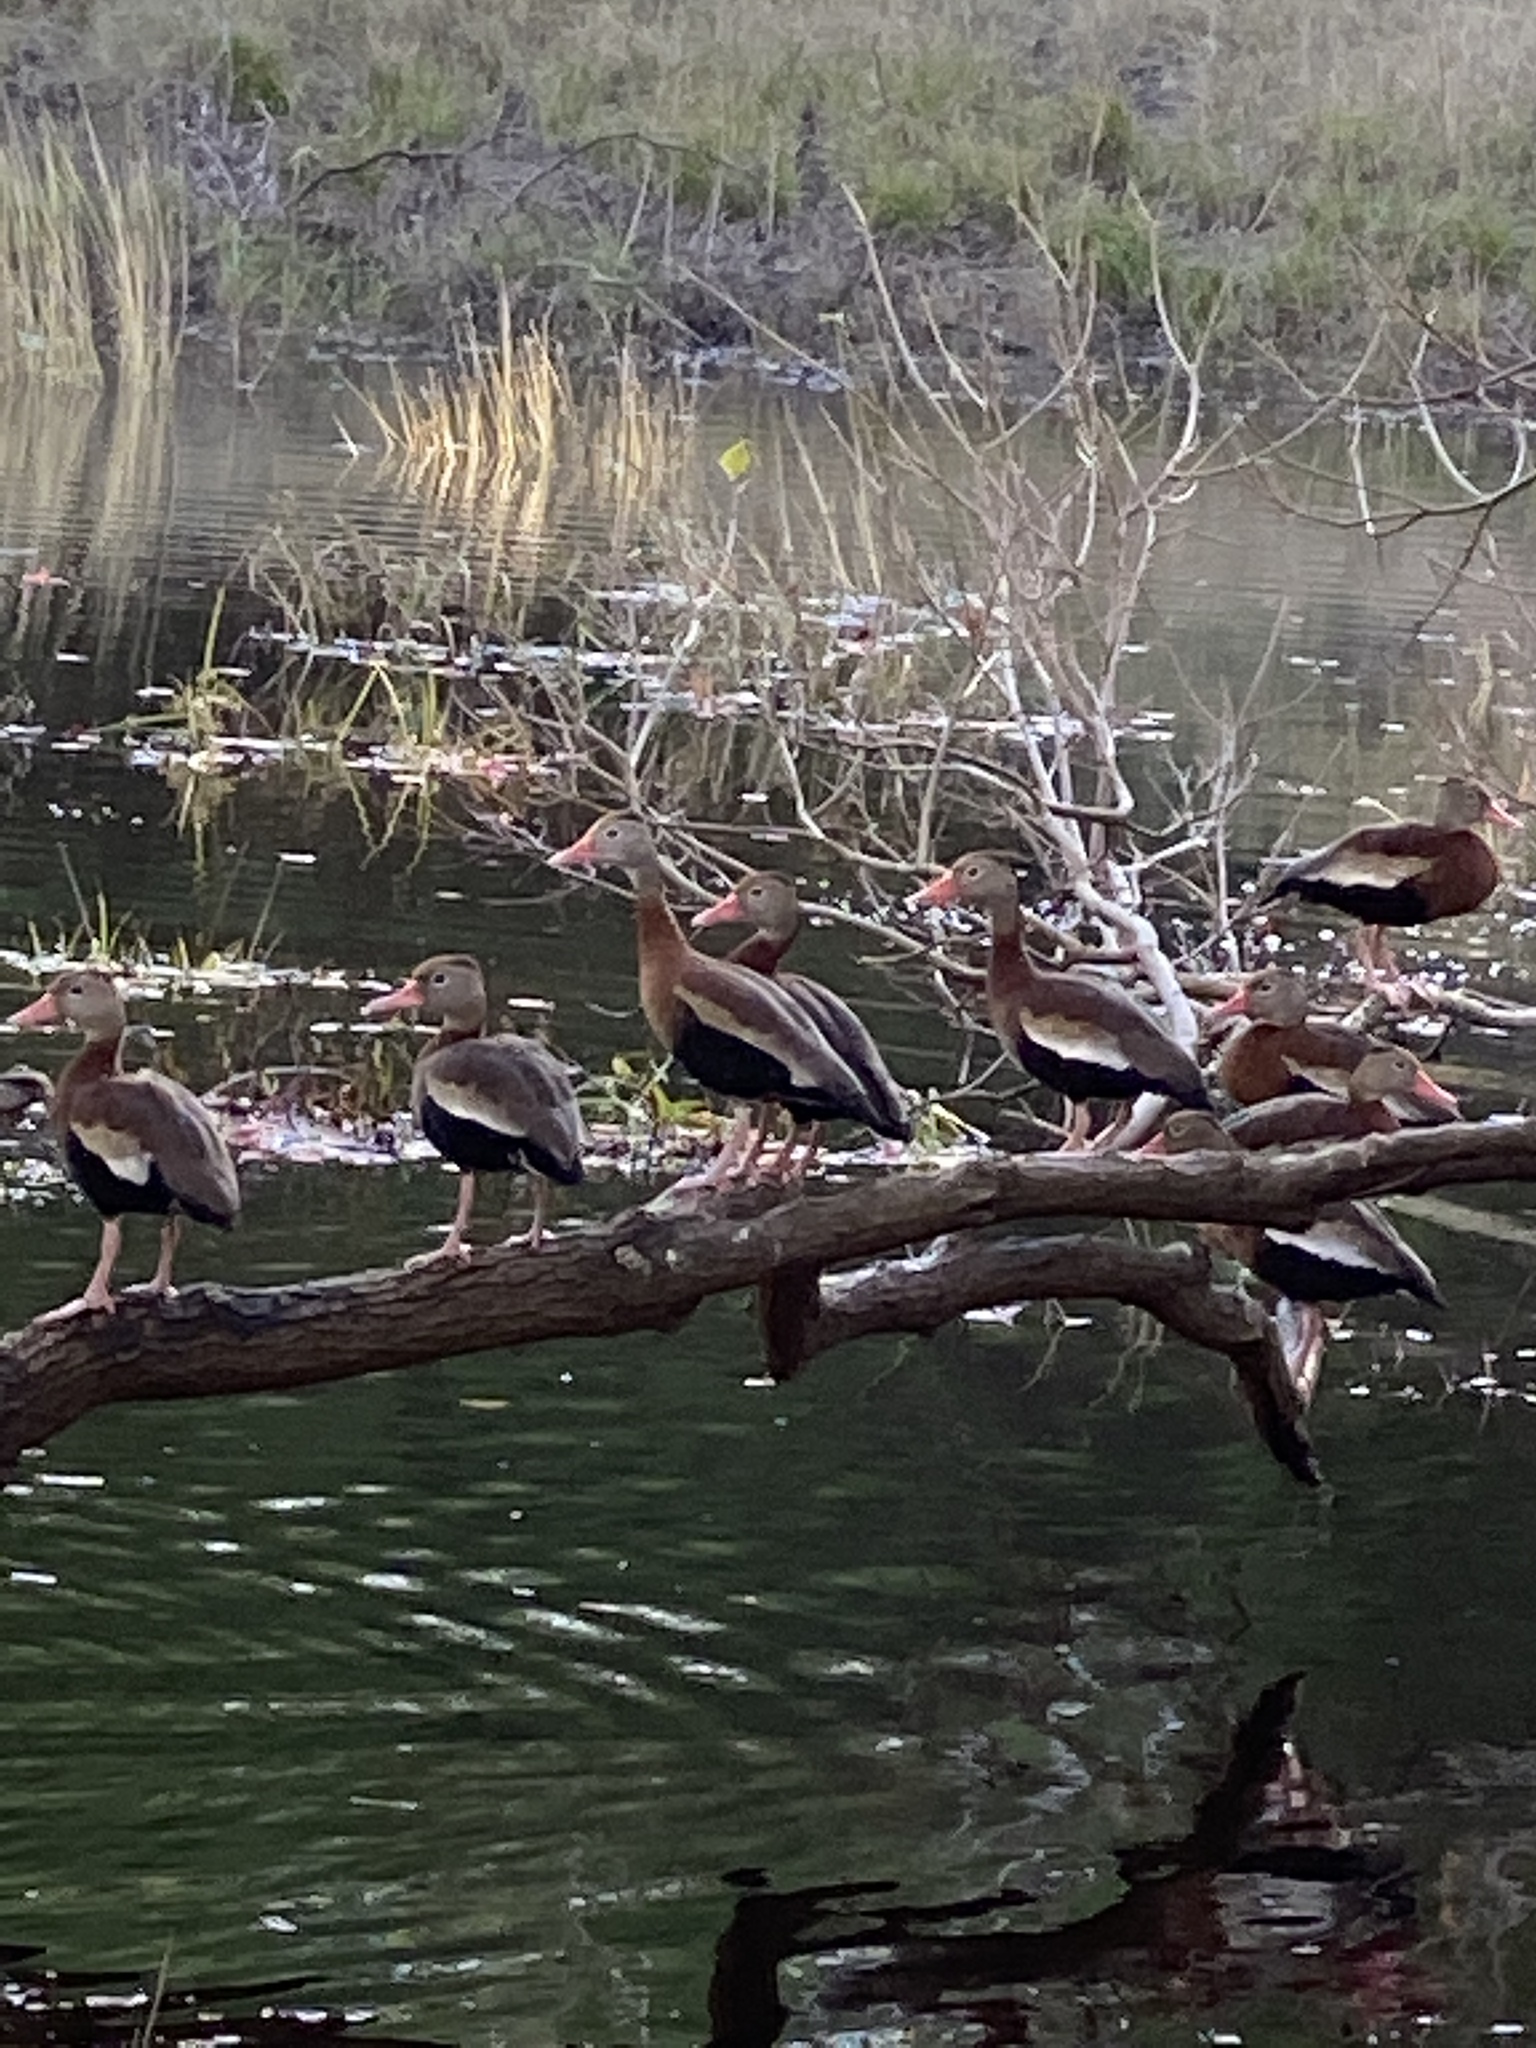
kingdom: Animalia
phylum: Chordata
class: Aves
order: Anseriformes
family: Anatidae
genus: Dendrocygna
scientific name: Dendrocygna autumnalis
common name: Black-bellied whistling duck
